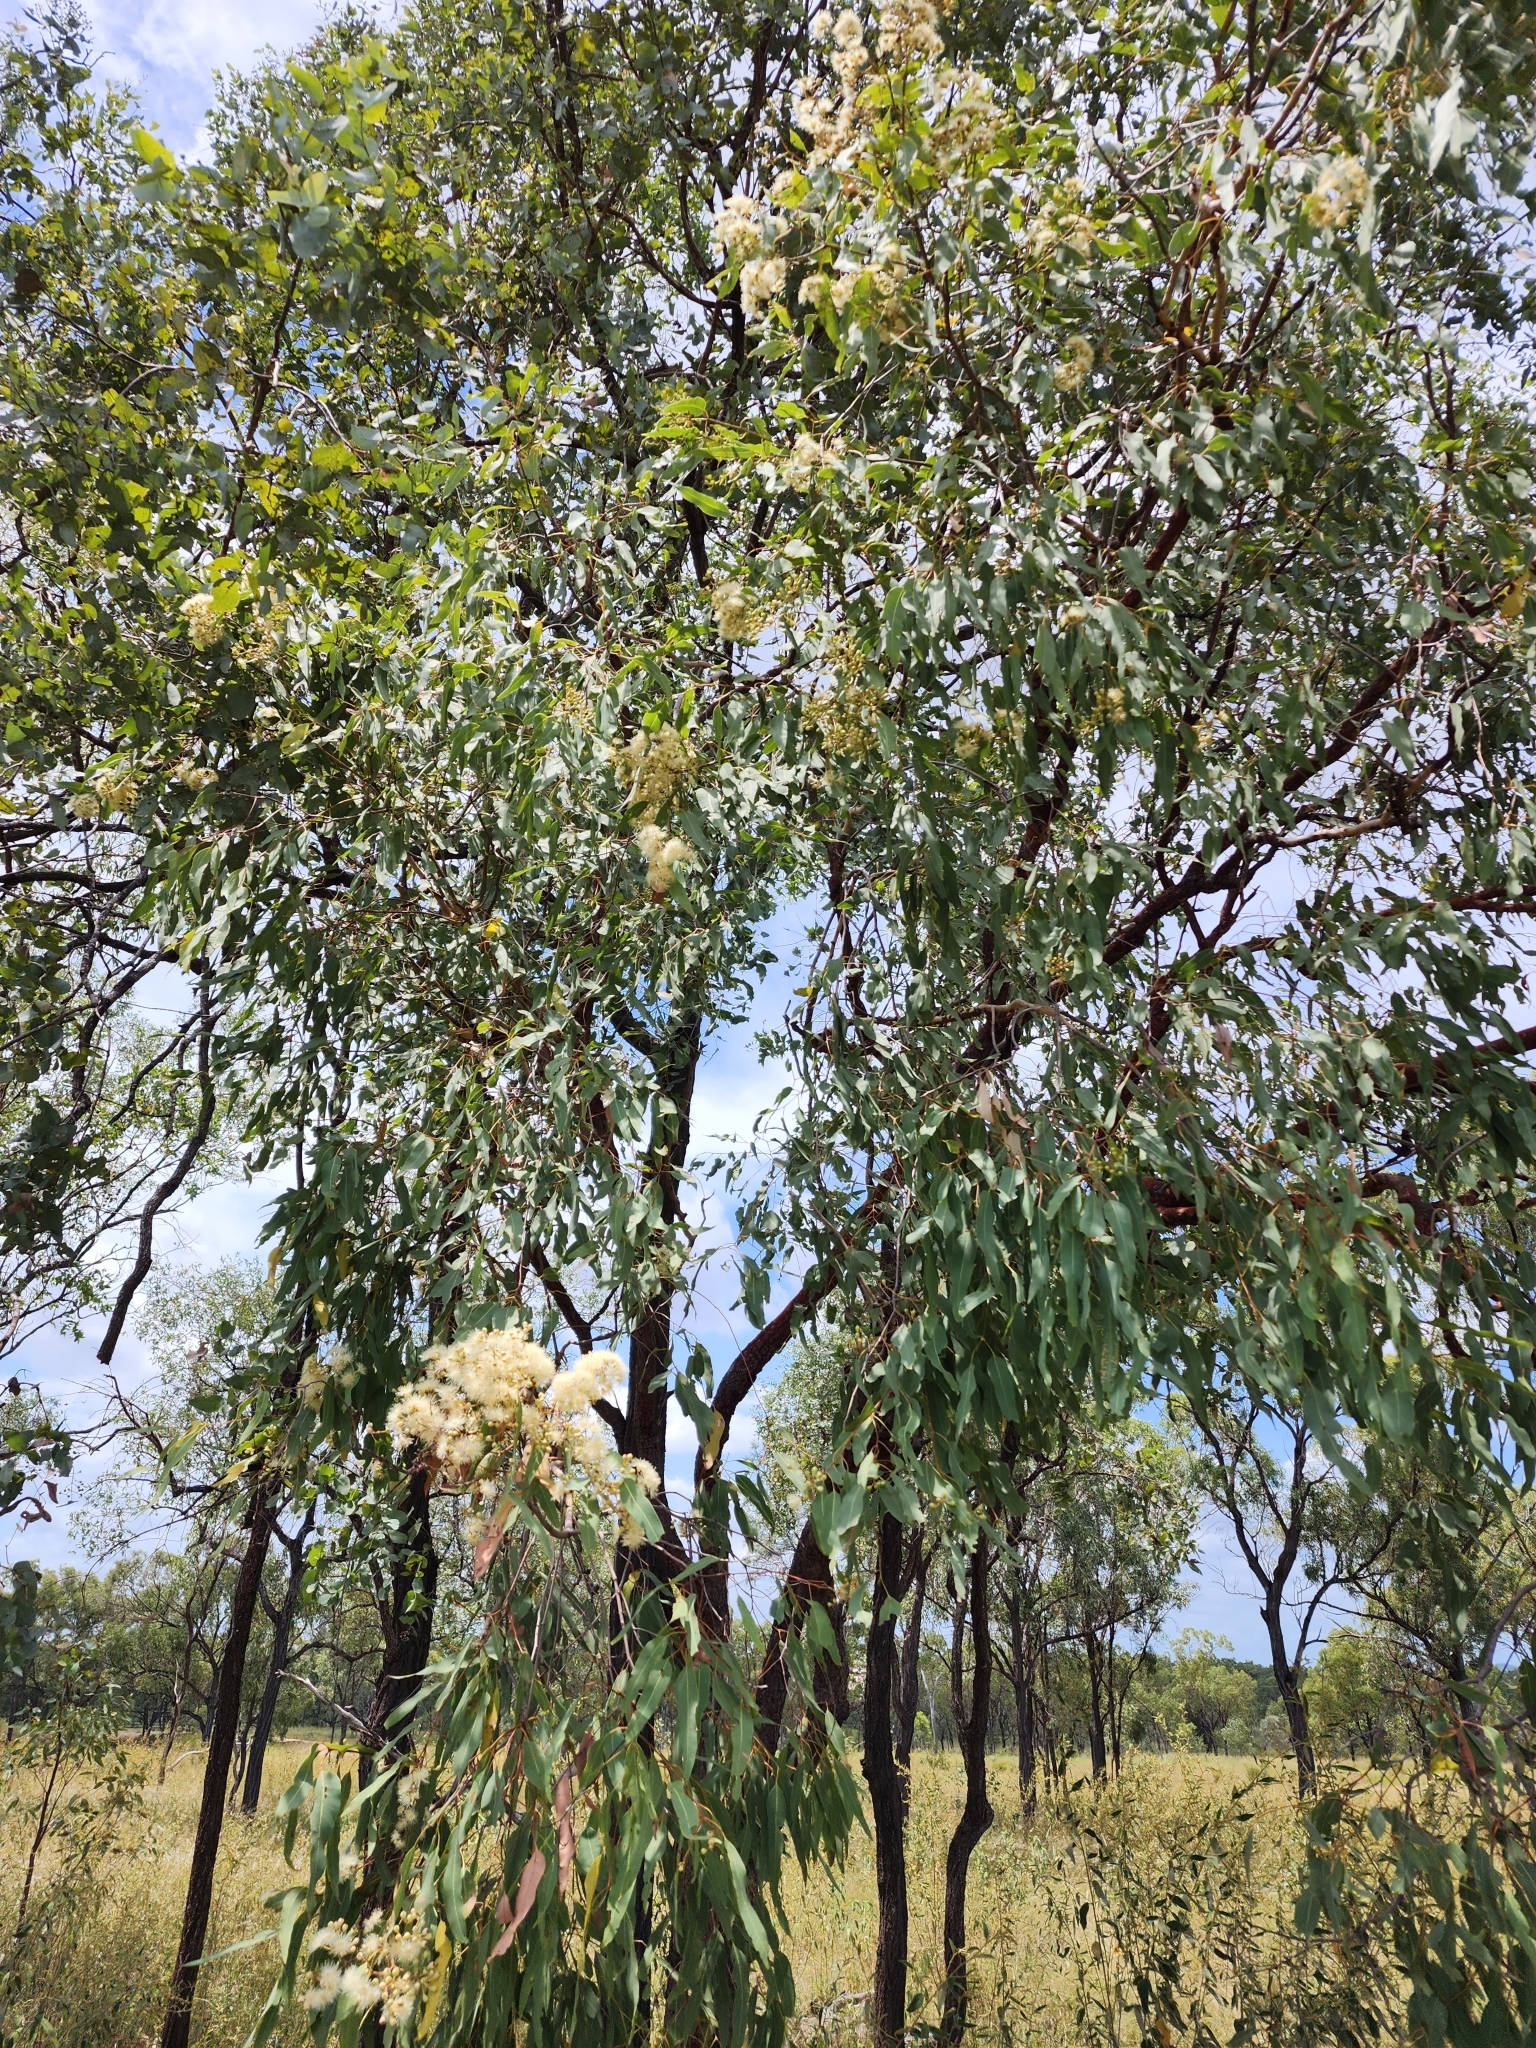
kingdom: Plantae
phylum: Tracheophyta
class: Magnoliopsida
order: Myrtales
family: Myrtaceae
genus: Corymbia
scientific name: Corymbia erythrophloia
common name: Red bloodwood
